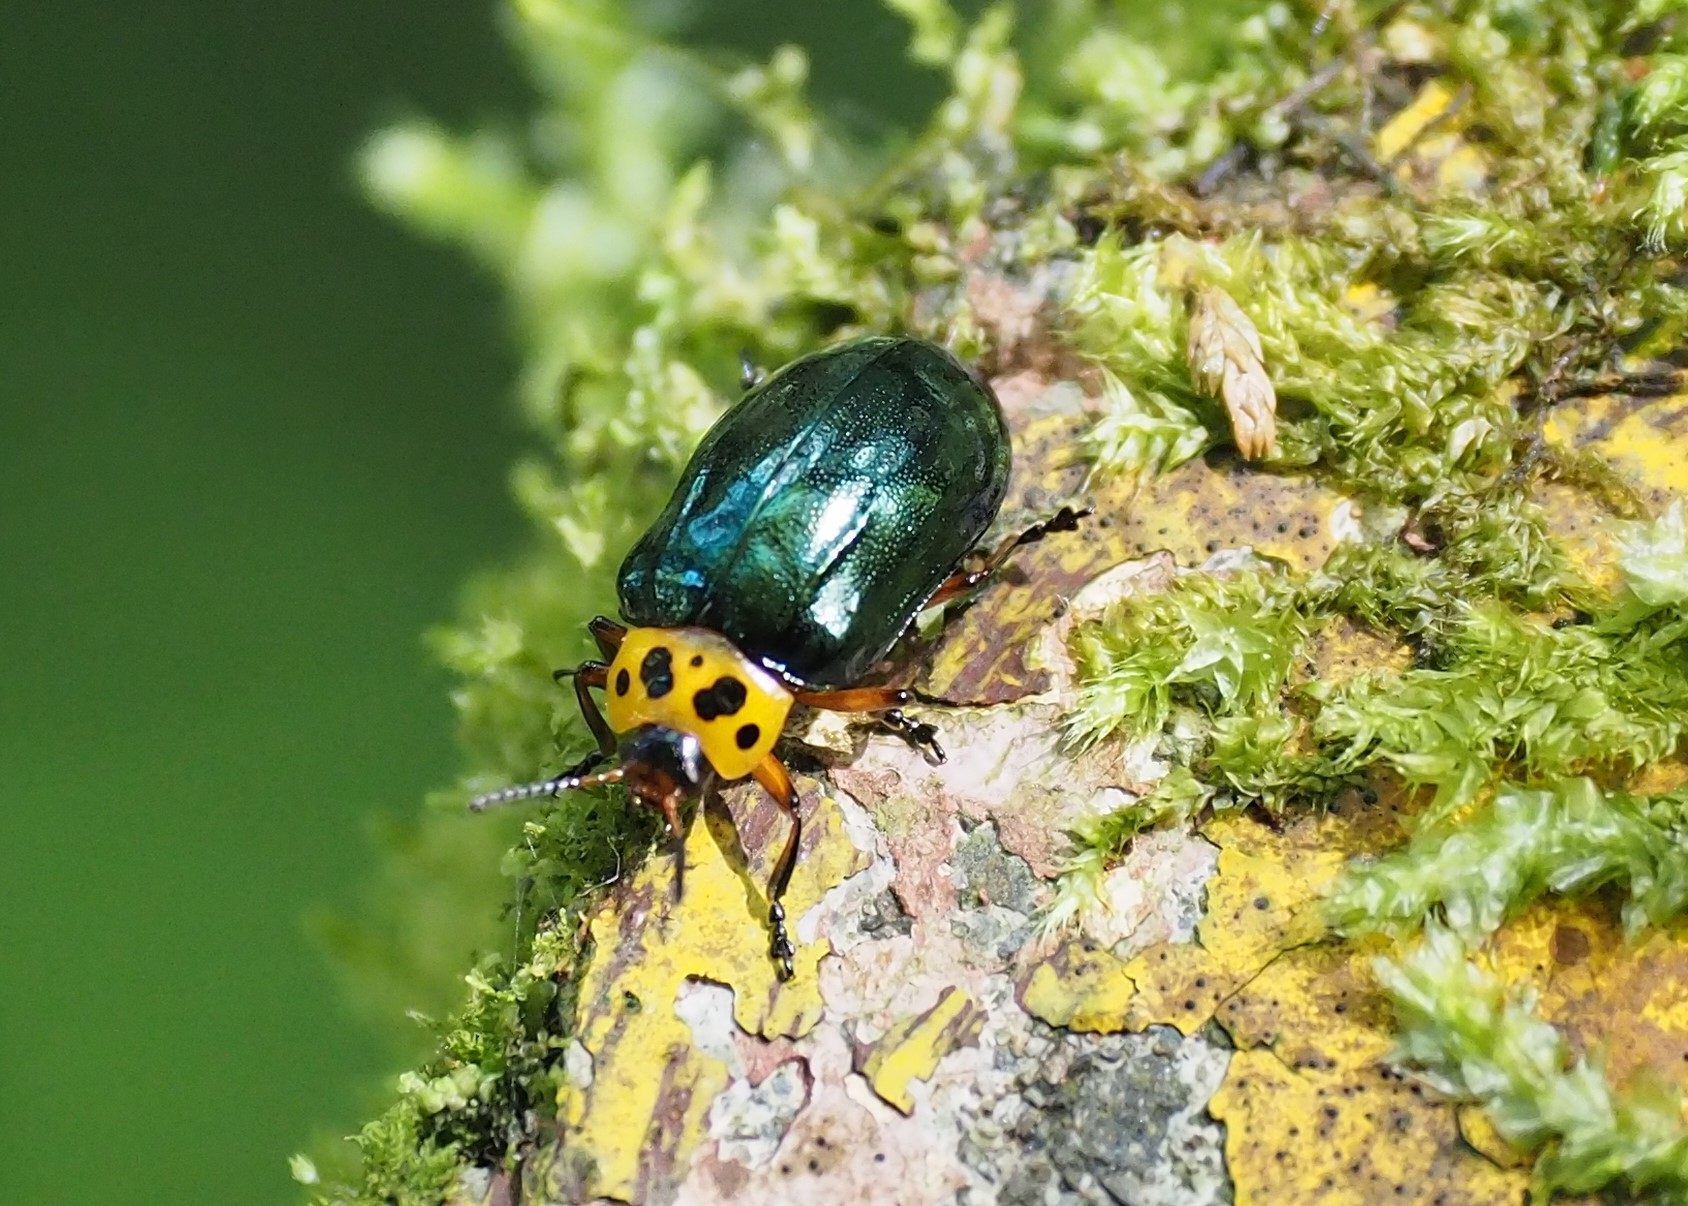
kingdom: Animalia
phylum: Arthropoda
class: Insecta
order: Coleoptera
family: Chrysomelidae
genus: Plagiosterna
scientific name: Plagiosterna maculicollis
